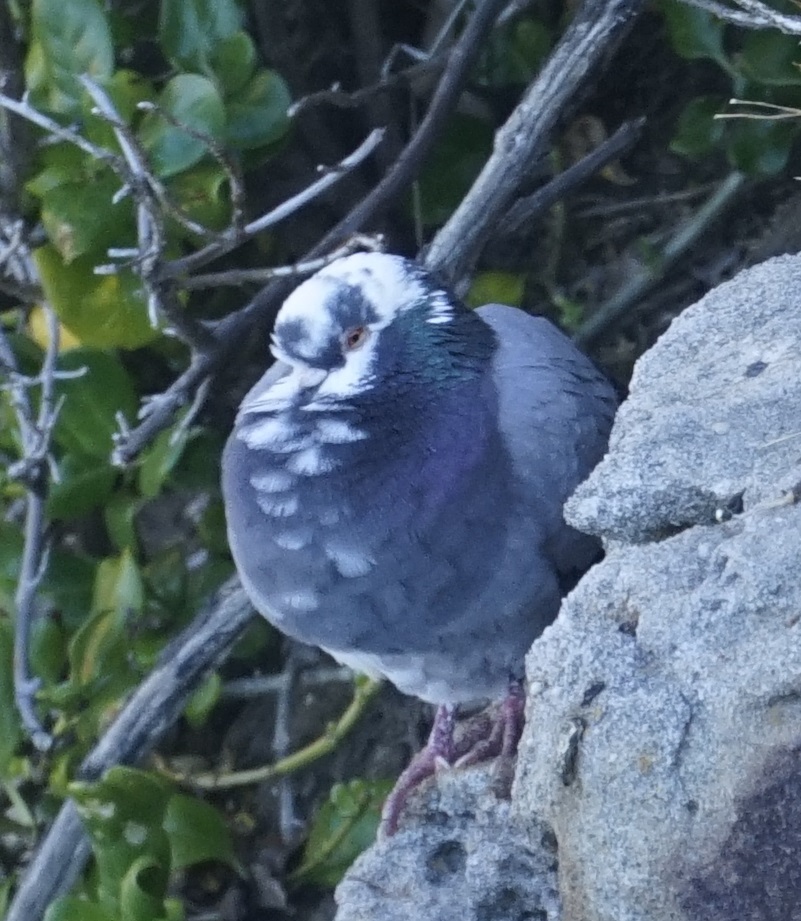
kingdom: Animalia
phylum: Chordata
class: Aves
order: Columbiformes
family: Columbidae
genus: Columba
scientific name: Columba livia
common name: Rock pigeon
